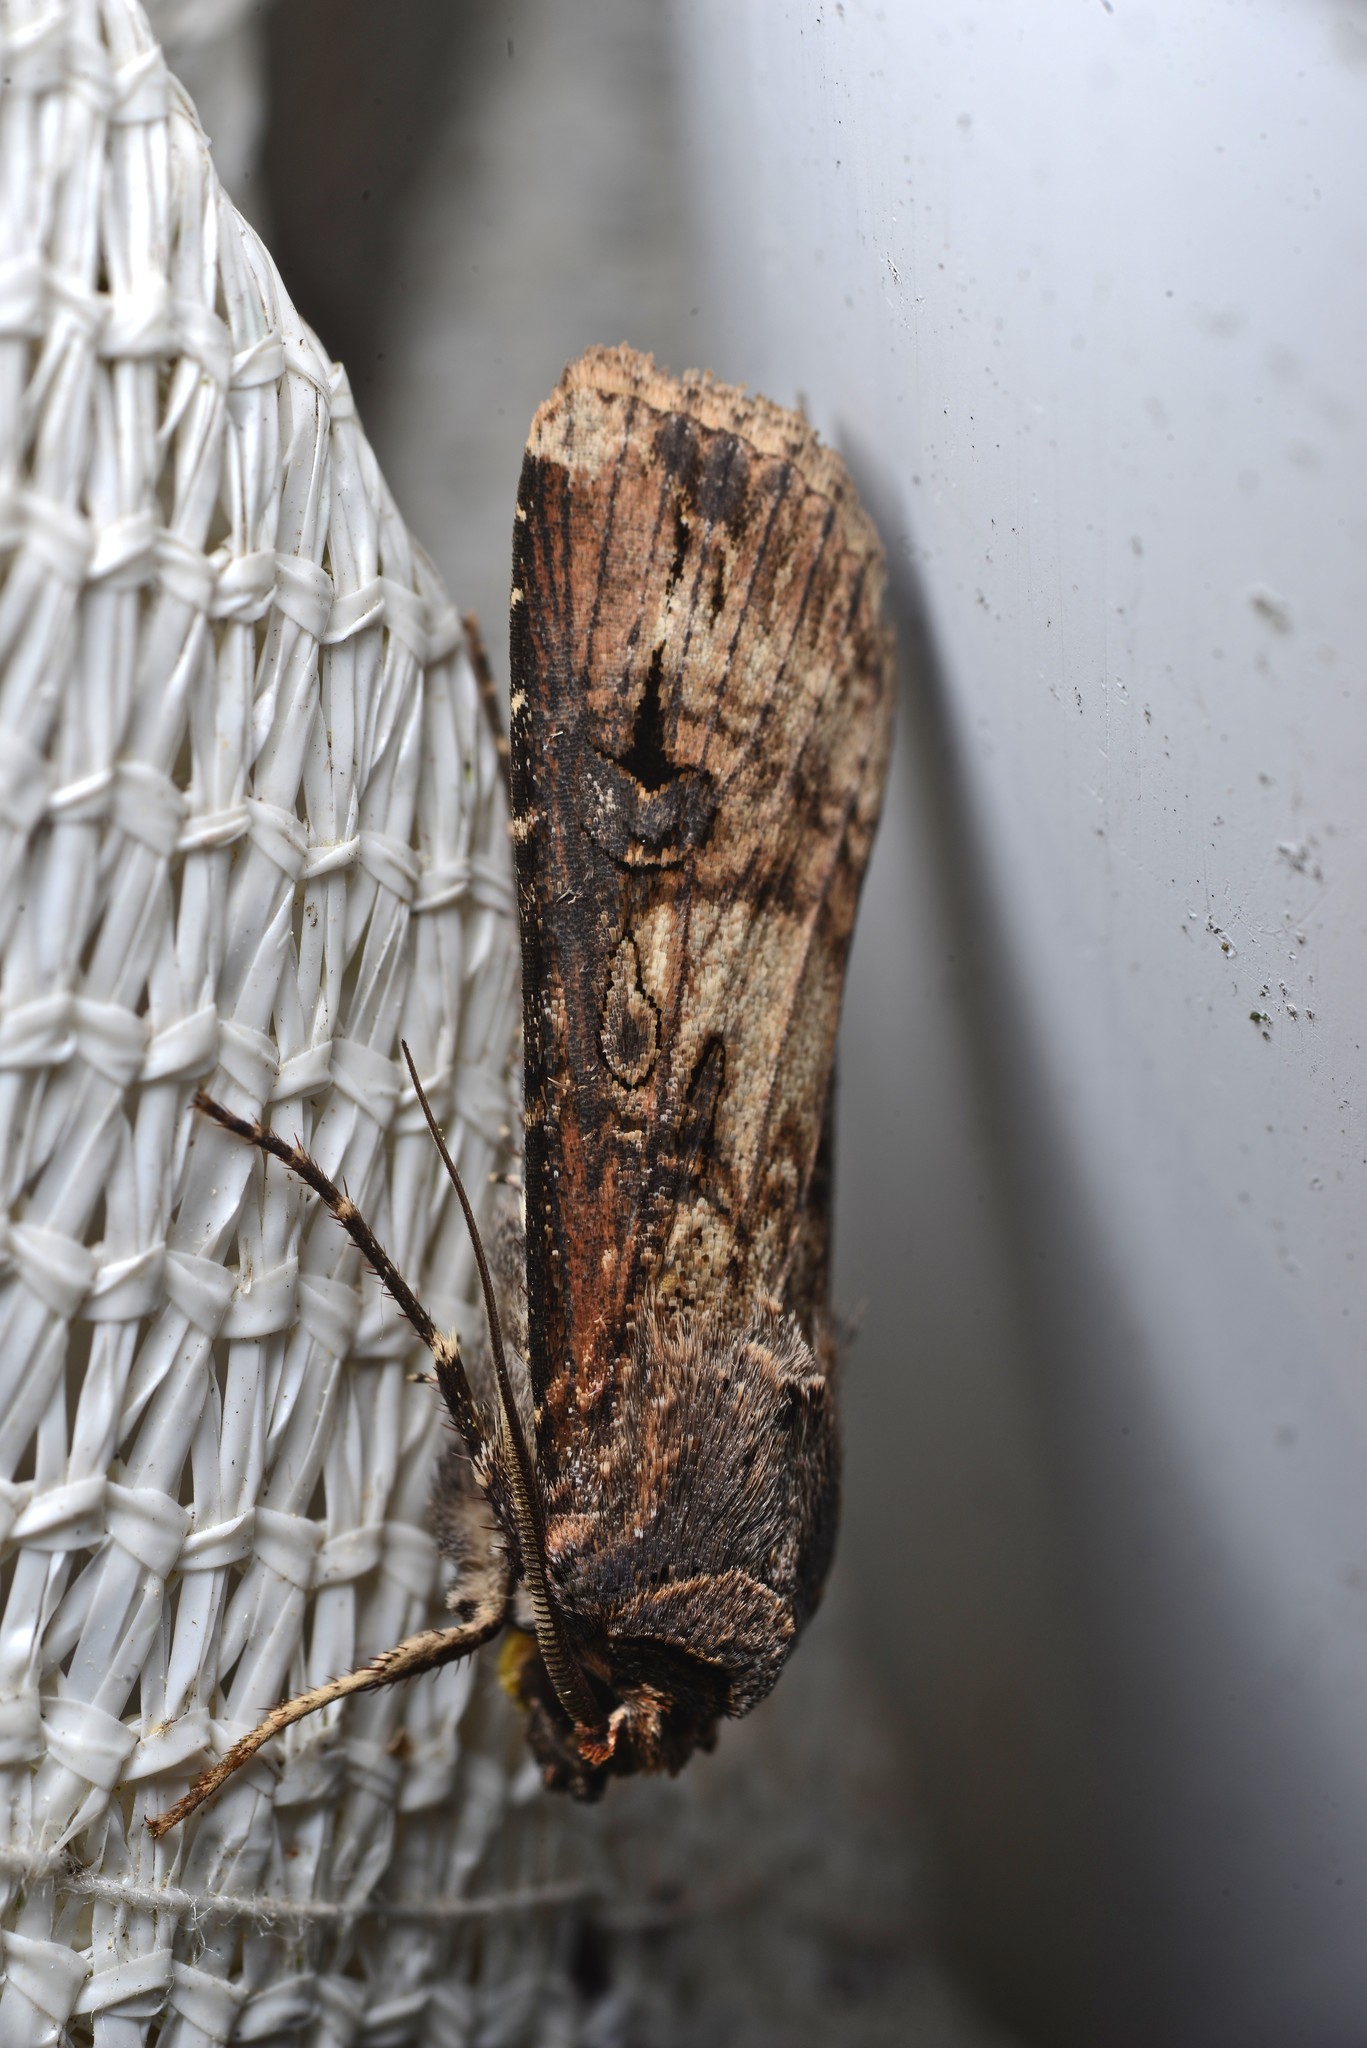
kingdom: Animalia
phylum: Arthropoda
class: Insecta
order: Lepidoptera
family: Noctuidae
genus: Agrotis
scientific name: Agrotis ipsilon
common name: Dark sword-grass
